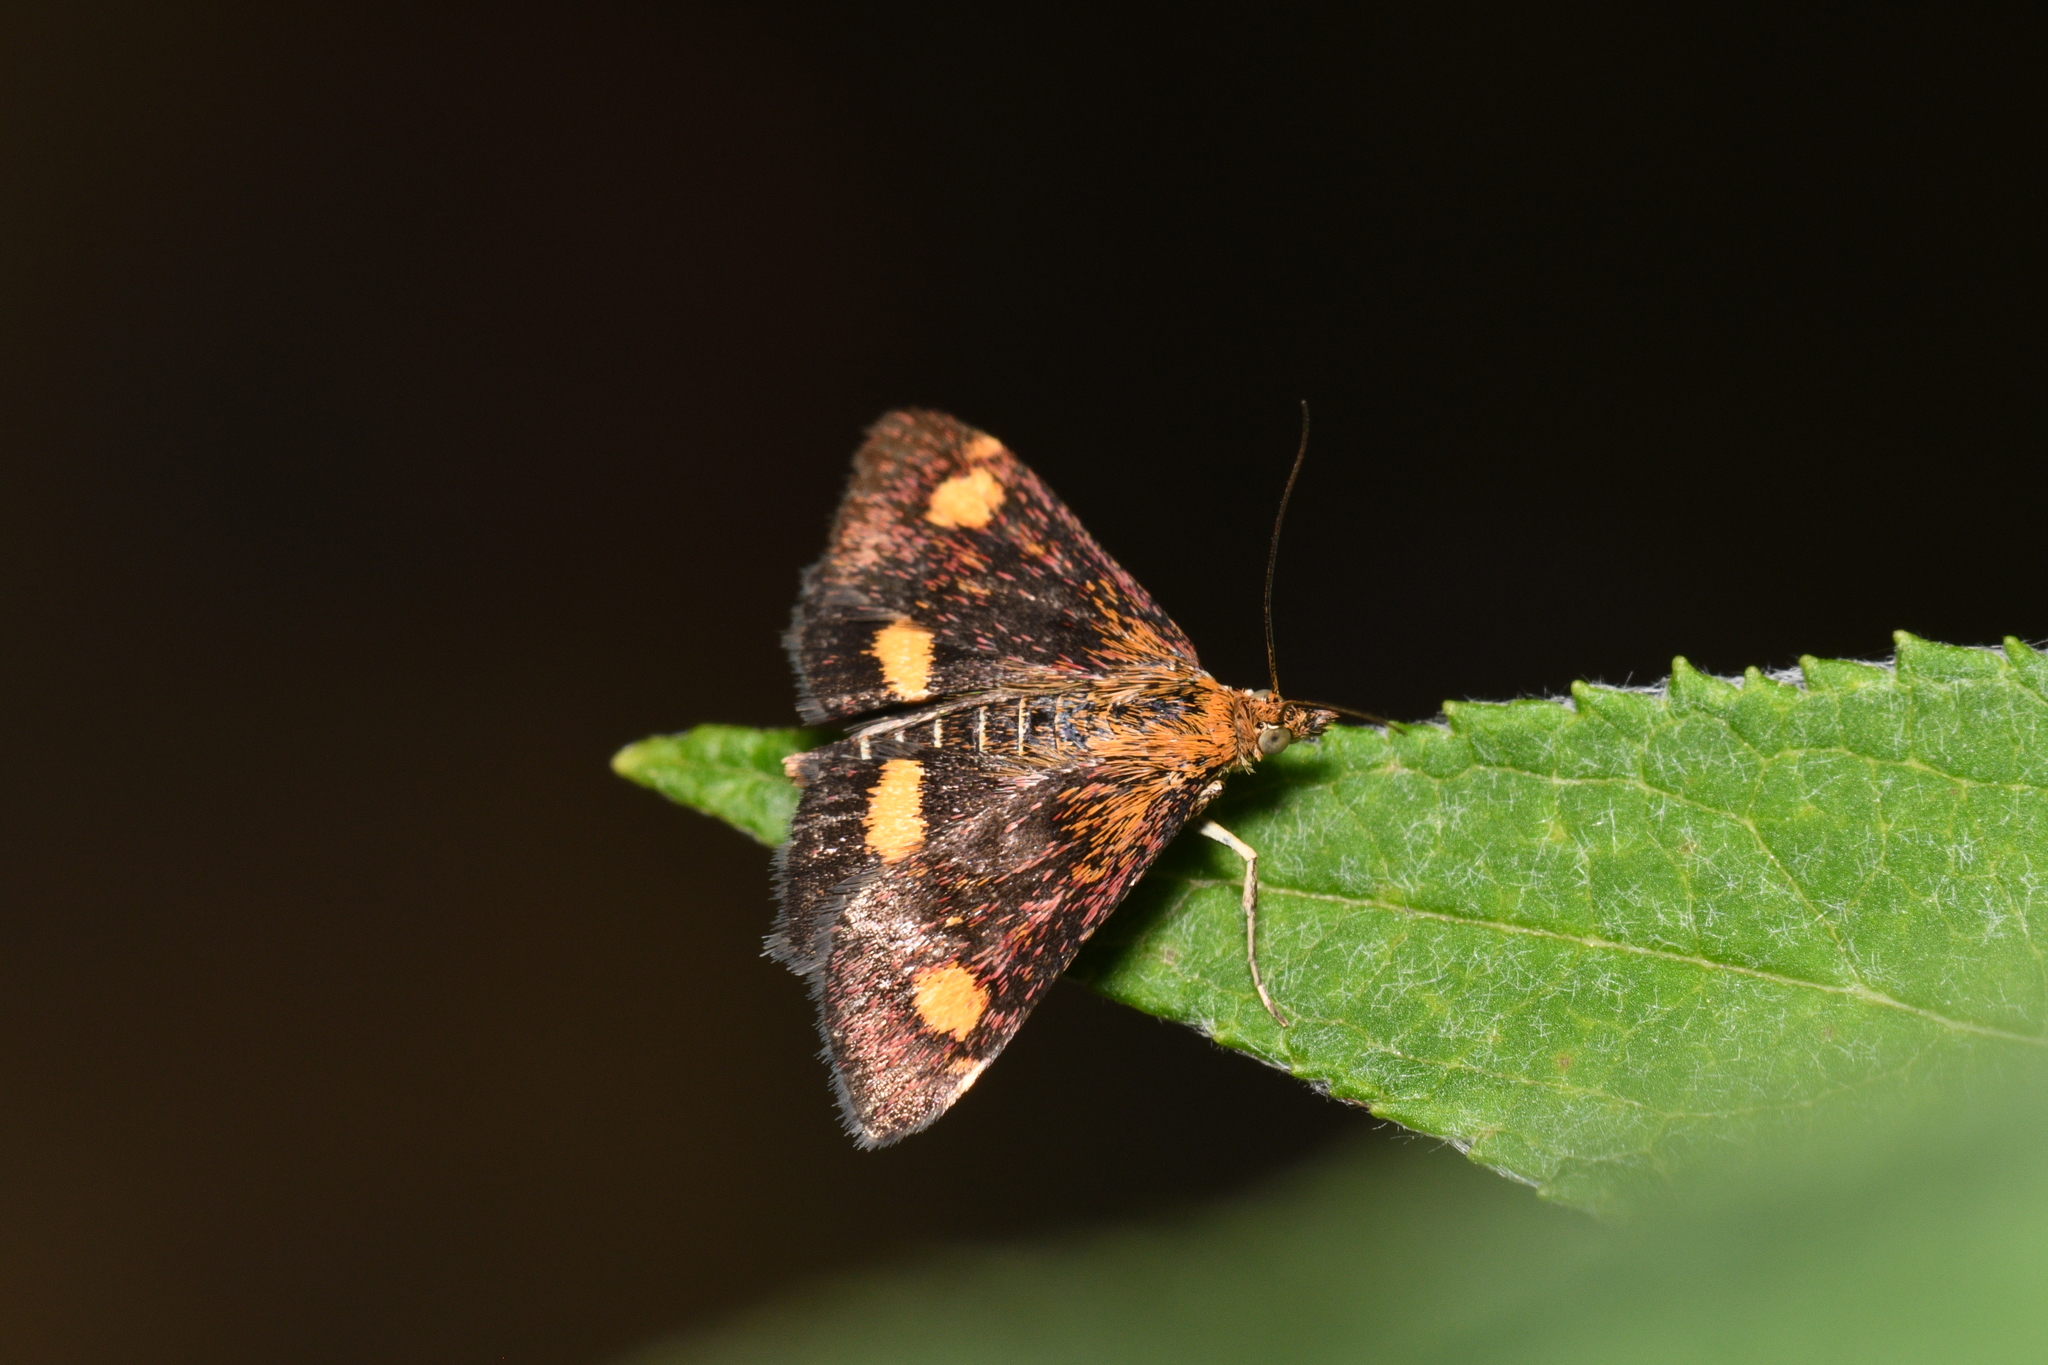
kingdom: Animalia
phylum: Arthropoda
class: Insecta
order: Lepidoptera
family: Crambidae
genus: Pyrausta
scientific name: Pyrausta aurata
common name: Small purple & gold
